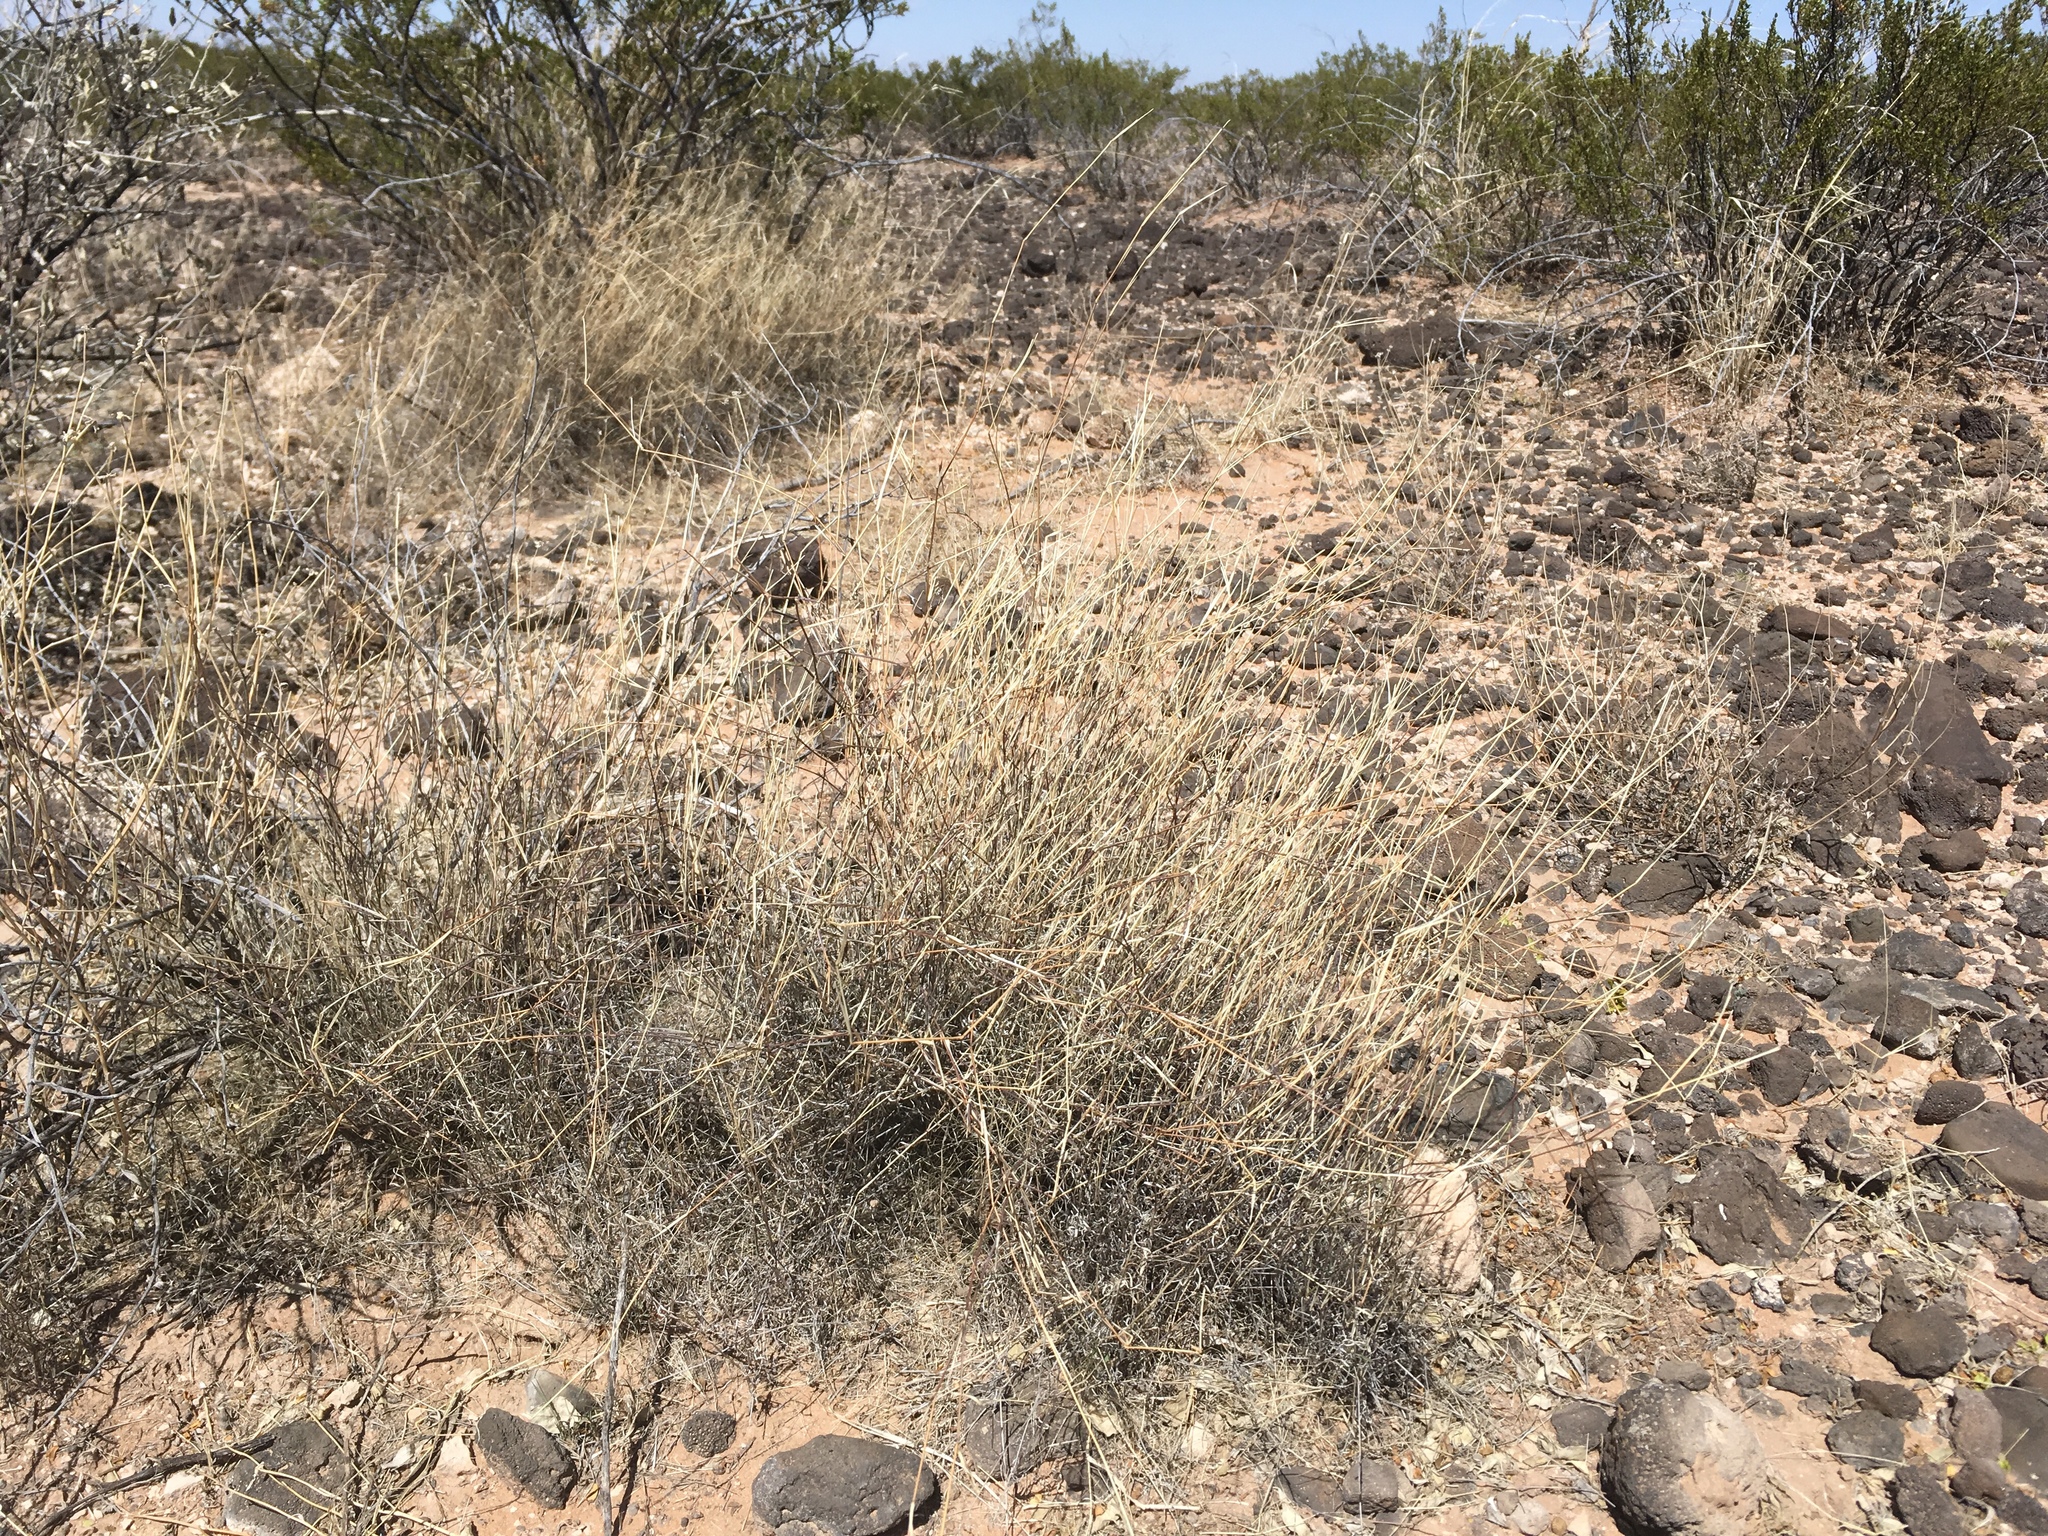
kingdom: Plantae
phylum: Tracheophyta
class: Liliopsida
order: Poales
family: Poaceae
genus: Muhlenbergia
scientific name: Muhlenbergia porteri
